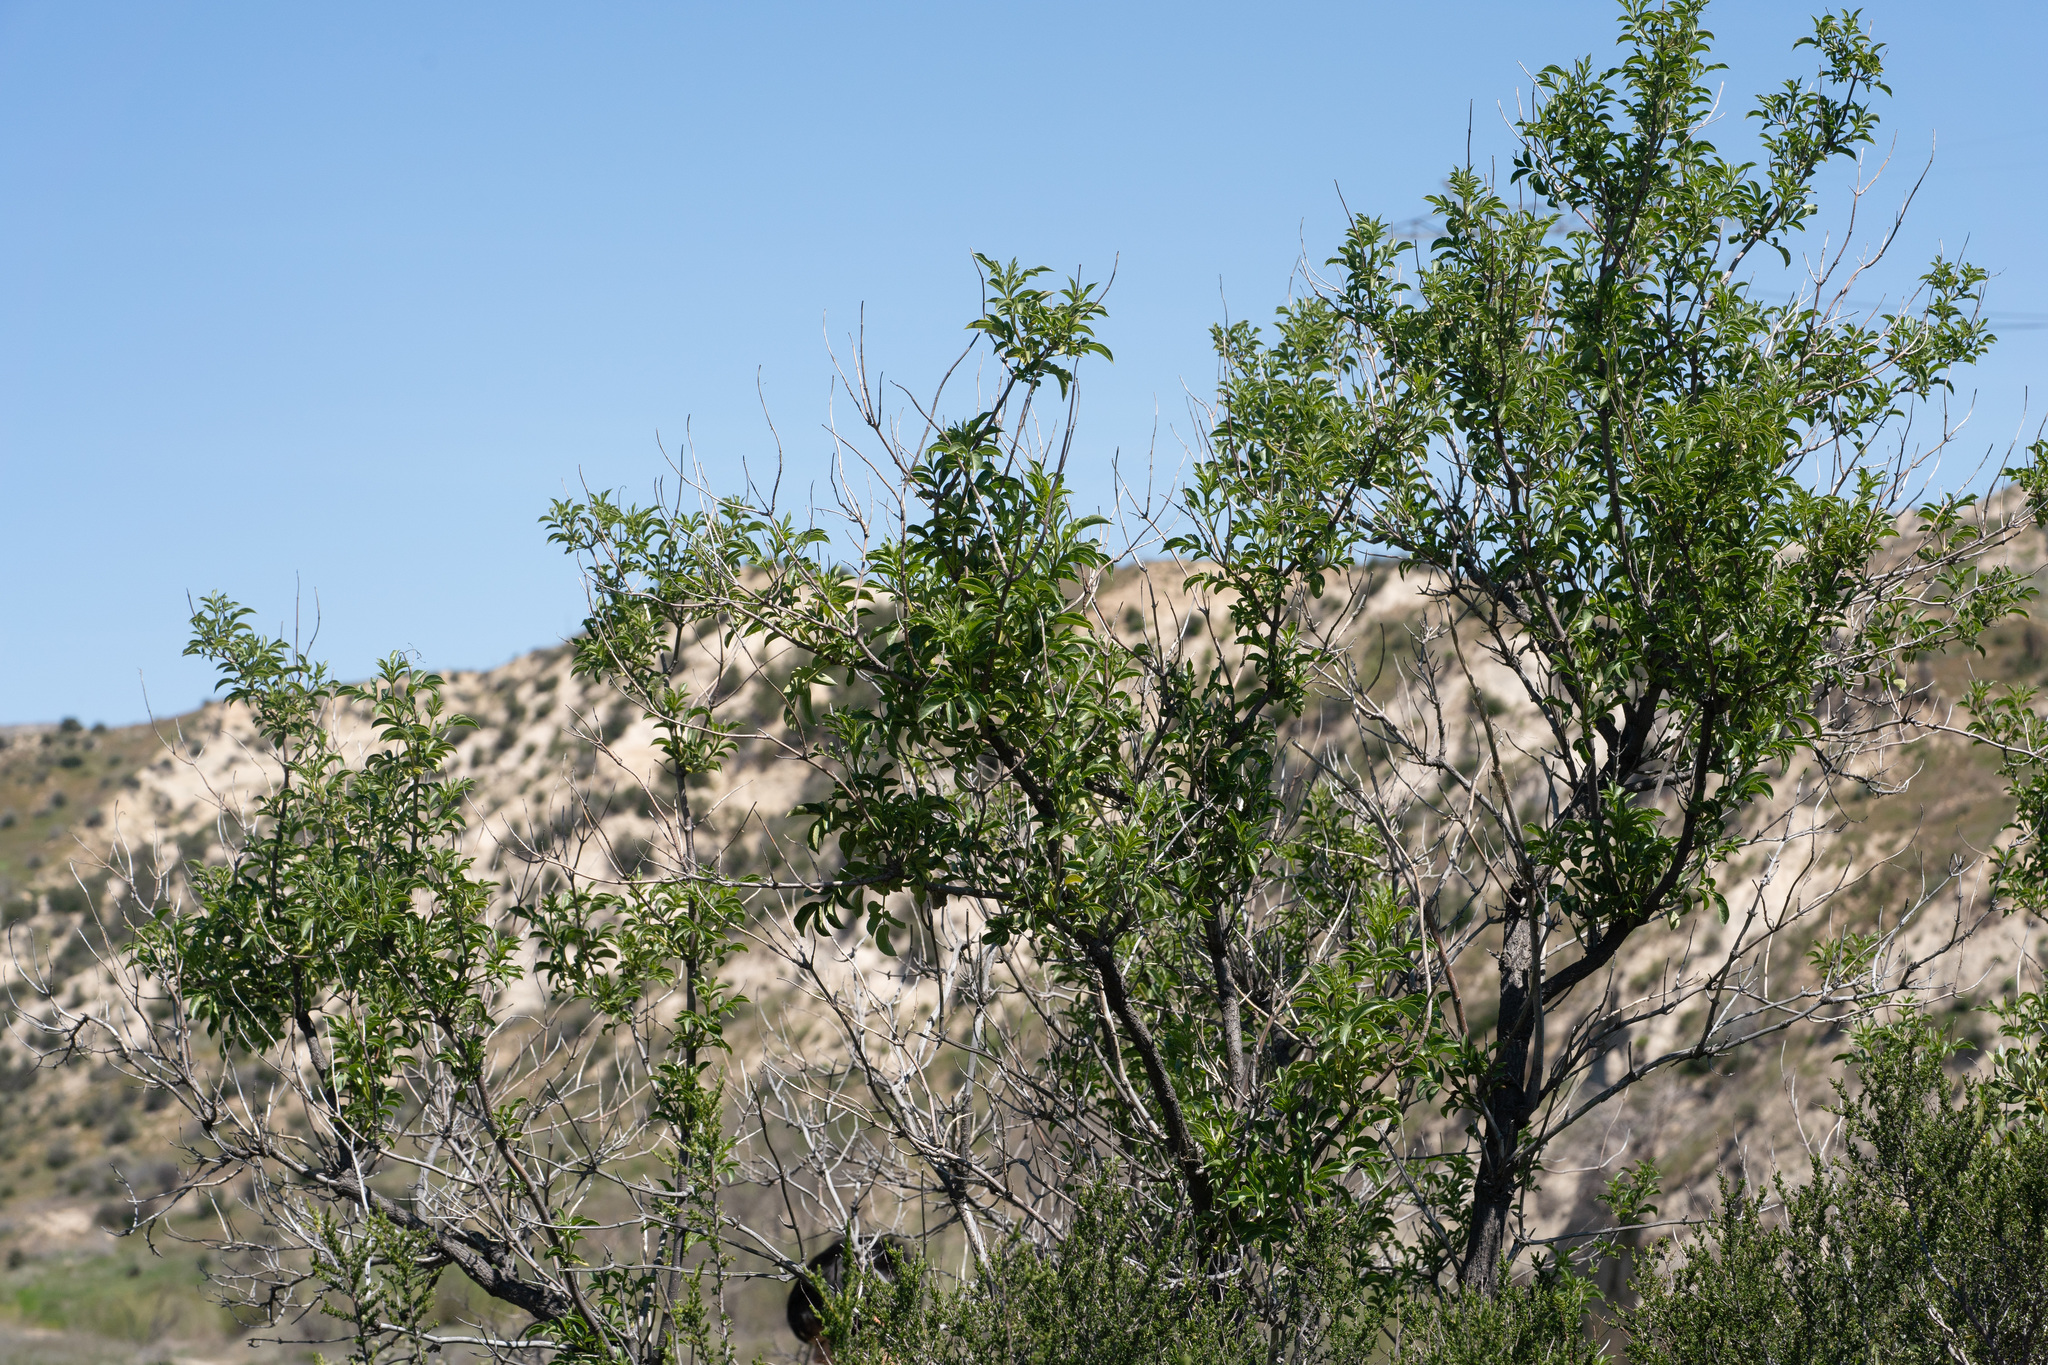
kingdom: Plantae
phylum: Tracheophyta
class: Magnoliopsida
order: Dipsacales
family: Viburnaceae
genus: Sambucus
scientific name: Sambucus cerulea
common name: Blue elder
